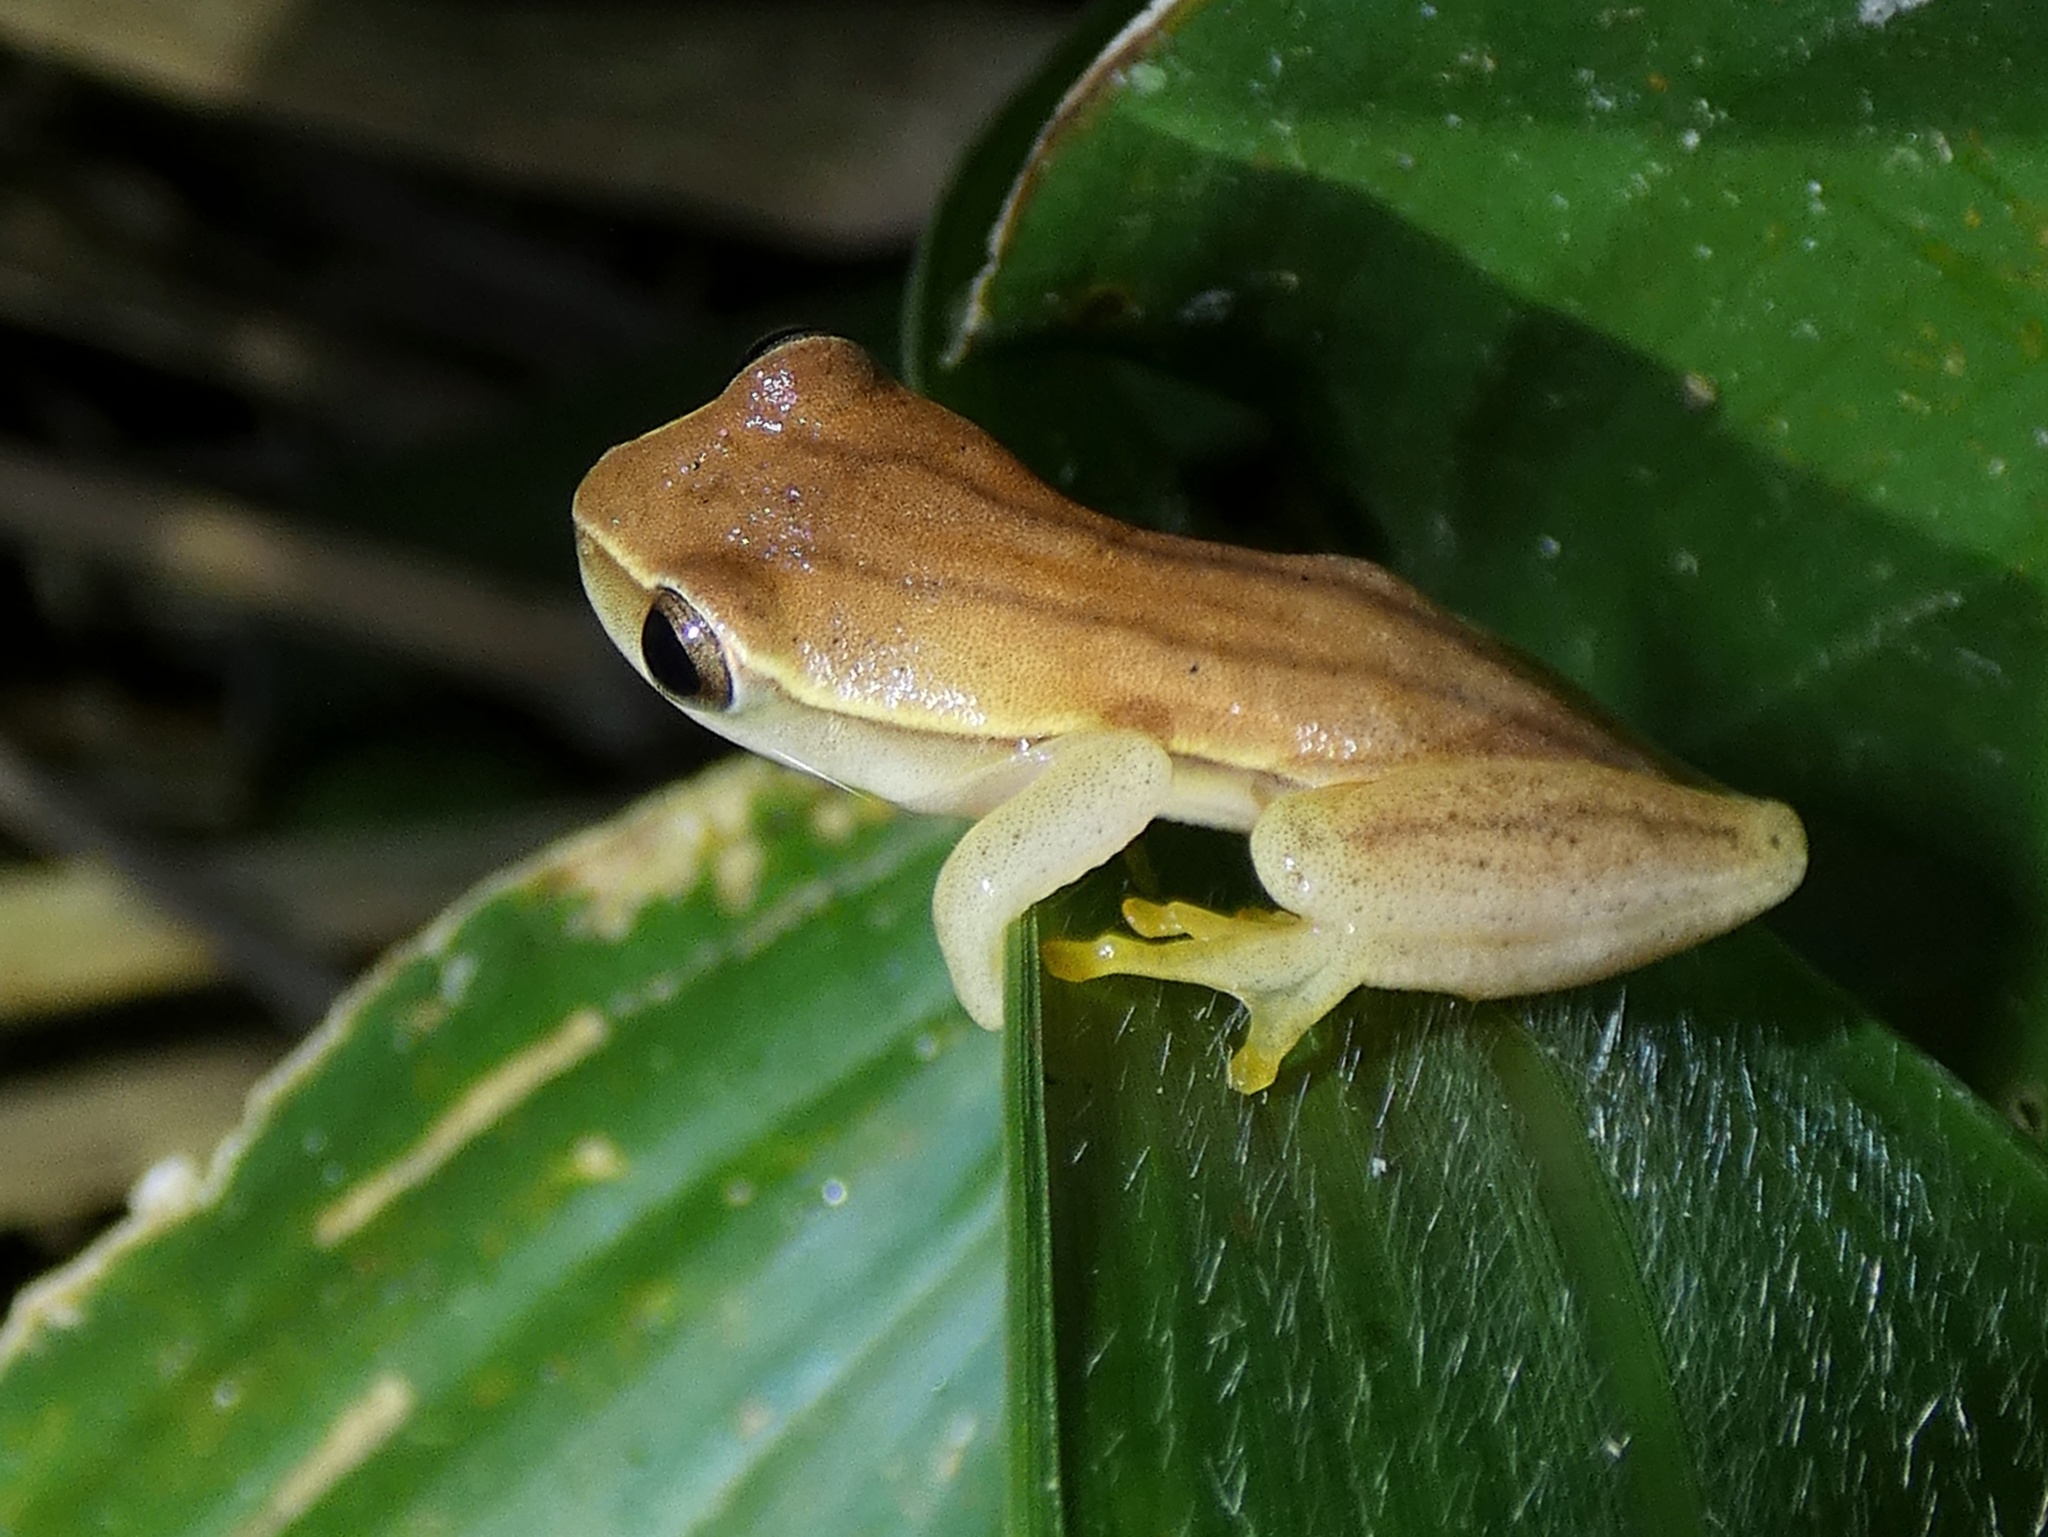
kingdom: Animalia
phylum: Chordata
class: Amphibia
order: Anura
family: Hylidae
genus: Dendropsophus
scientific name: Dendropsophus microcephalus
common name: Small-headed treefrog
